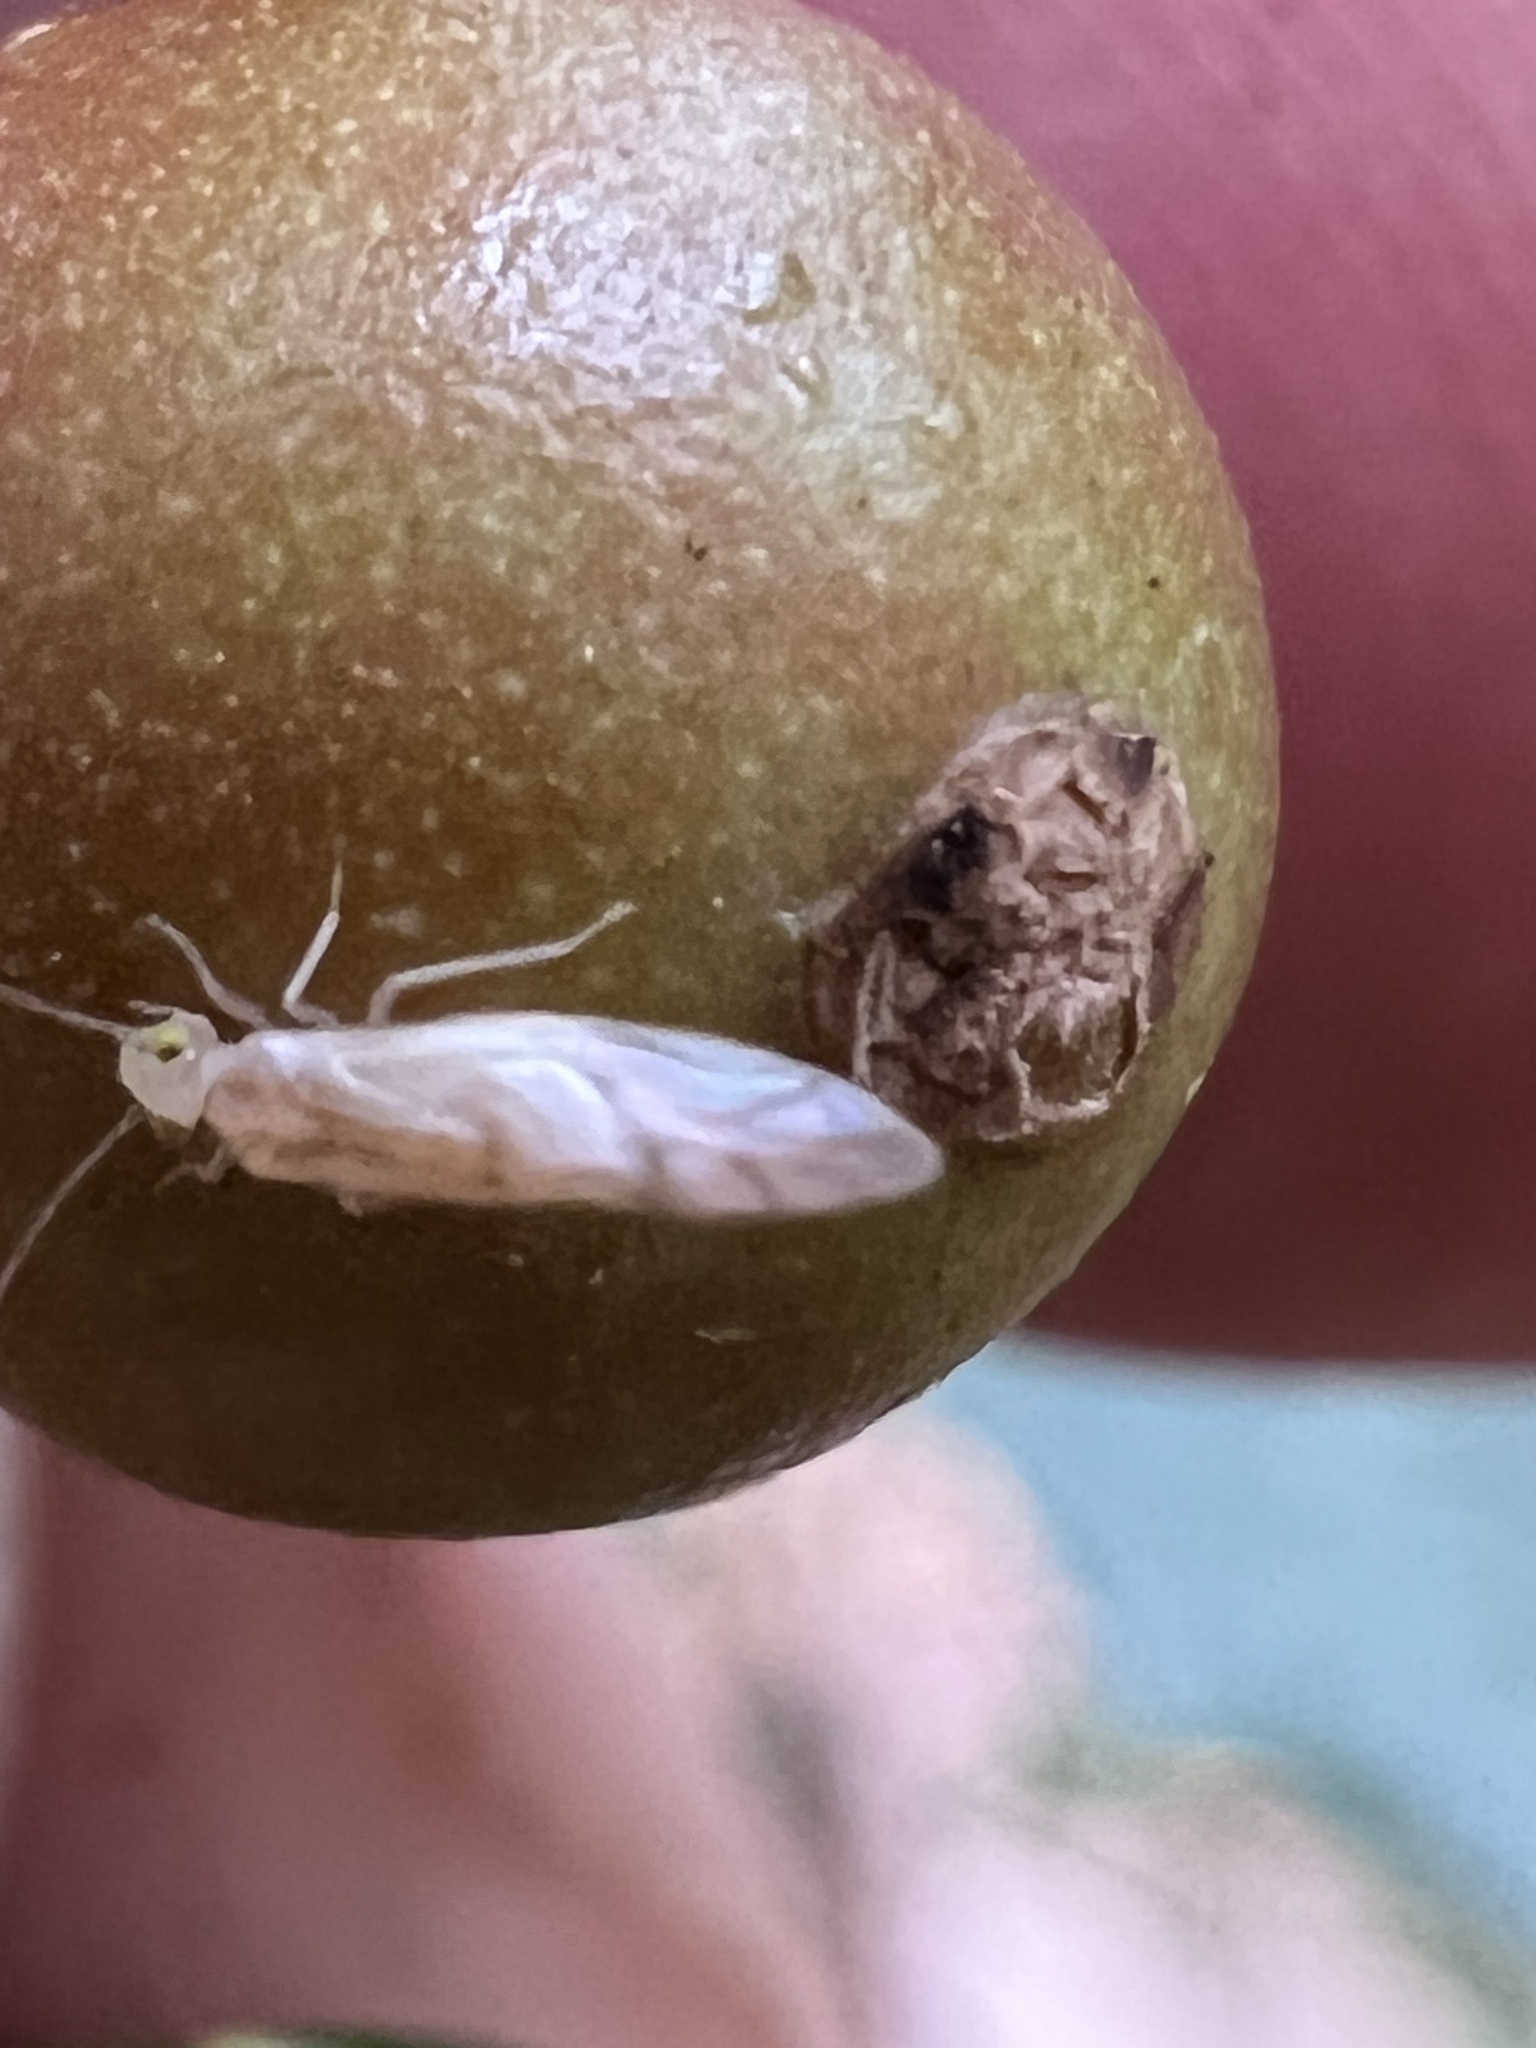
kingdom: Animalia
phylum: Arthropoda
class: Insecta
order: Psocodea
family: Paracaeciliidae
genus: Xanthocaecilius
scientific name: Xanthocaecilius sommermanae
